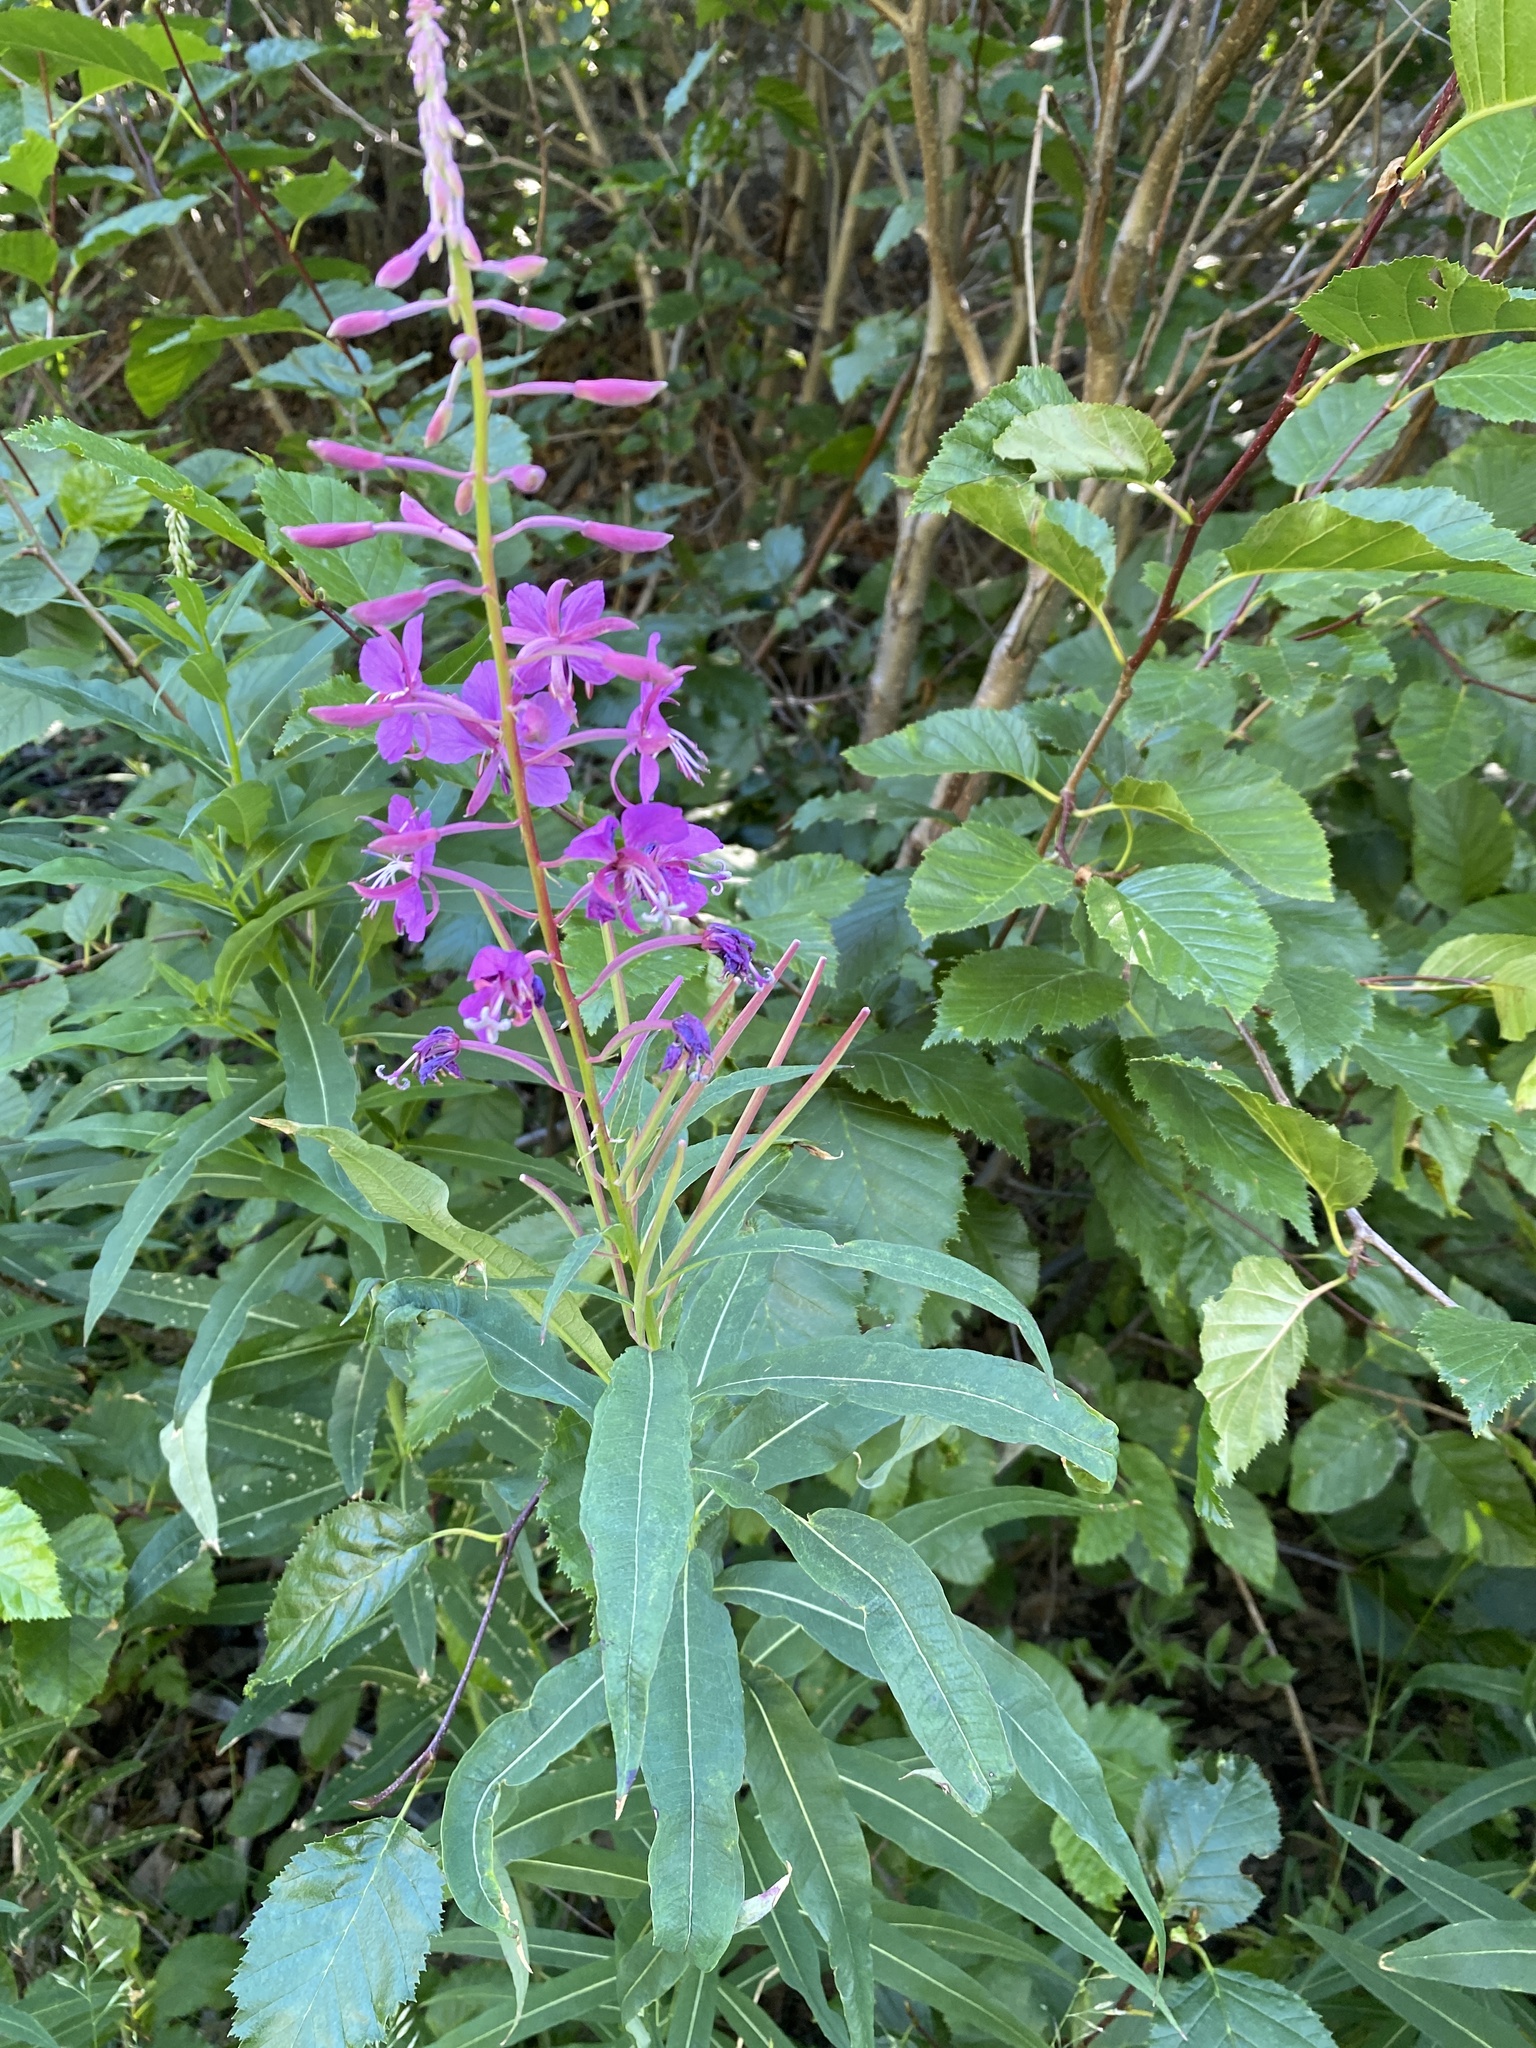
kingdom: Plantae
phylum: Tracheophyta
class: Magnoliopsida
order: Myrtales
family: Onagraceae
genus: Chamaenerion
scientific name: Chamaenerion angustifolium
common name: Fireweed
